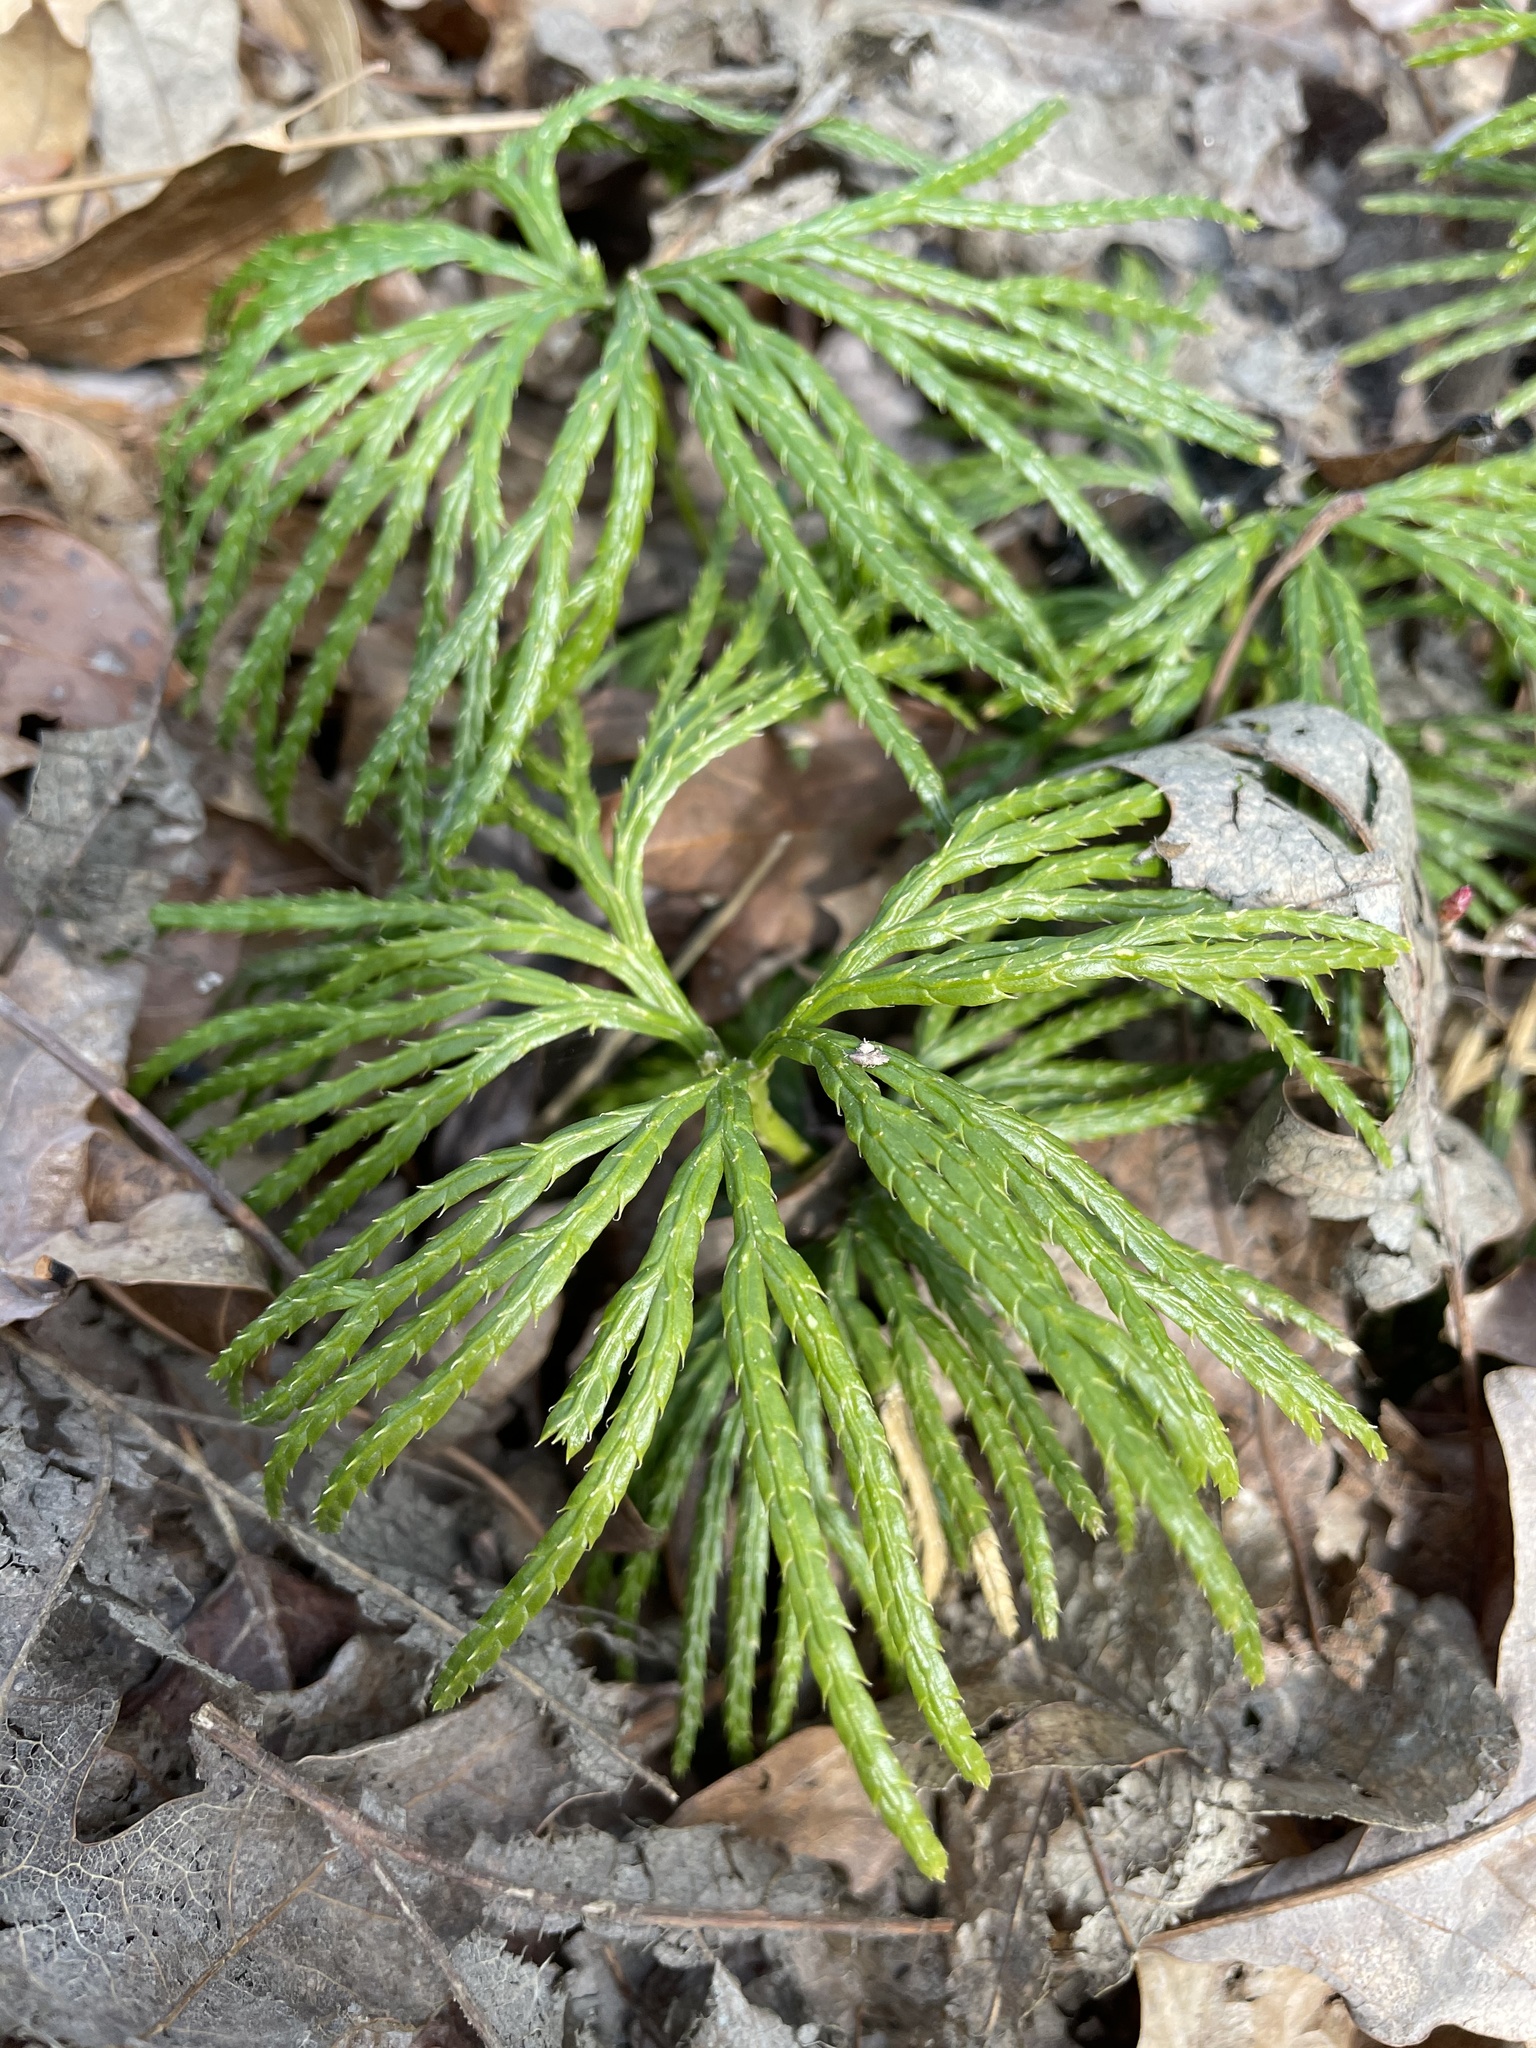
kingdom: Plantae
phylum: Tracheophyta
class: Lycopodiopsida
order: Lycopodiales
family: Lycopodiaceae
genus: Diphasiastrum
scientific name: Diphasiastrum digitatum
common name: Southern running-pine
